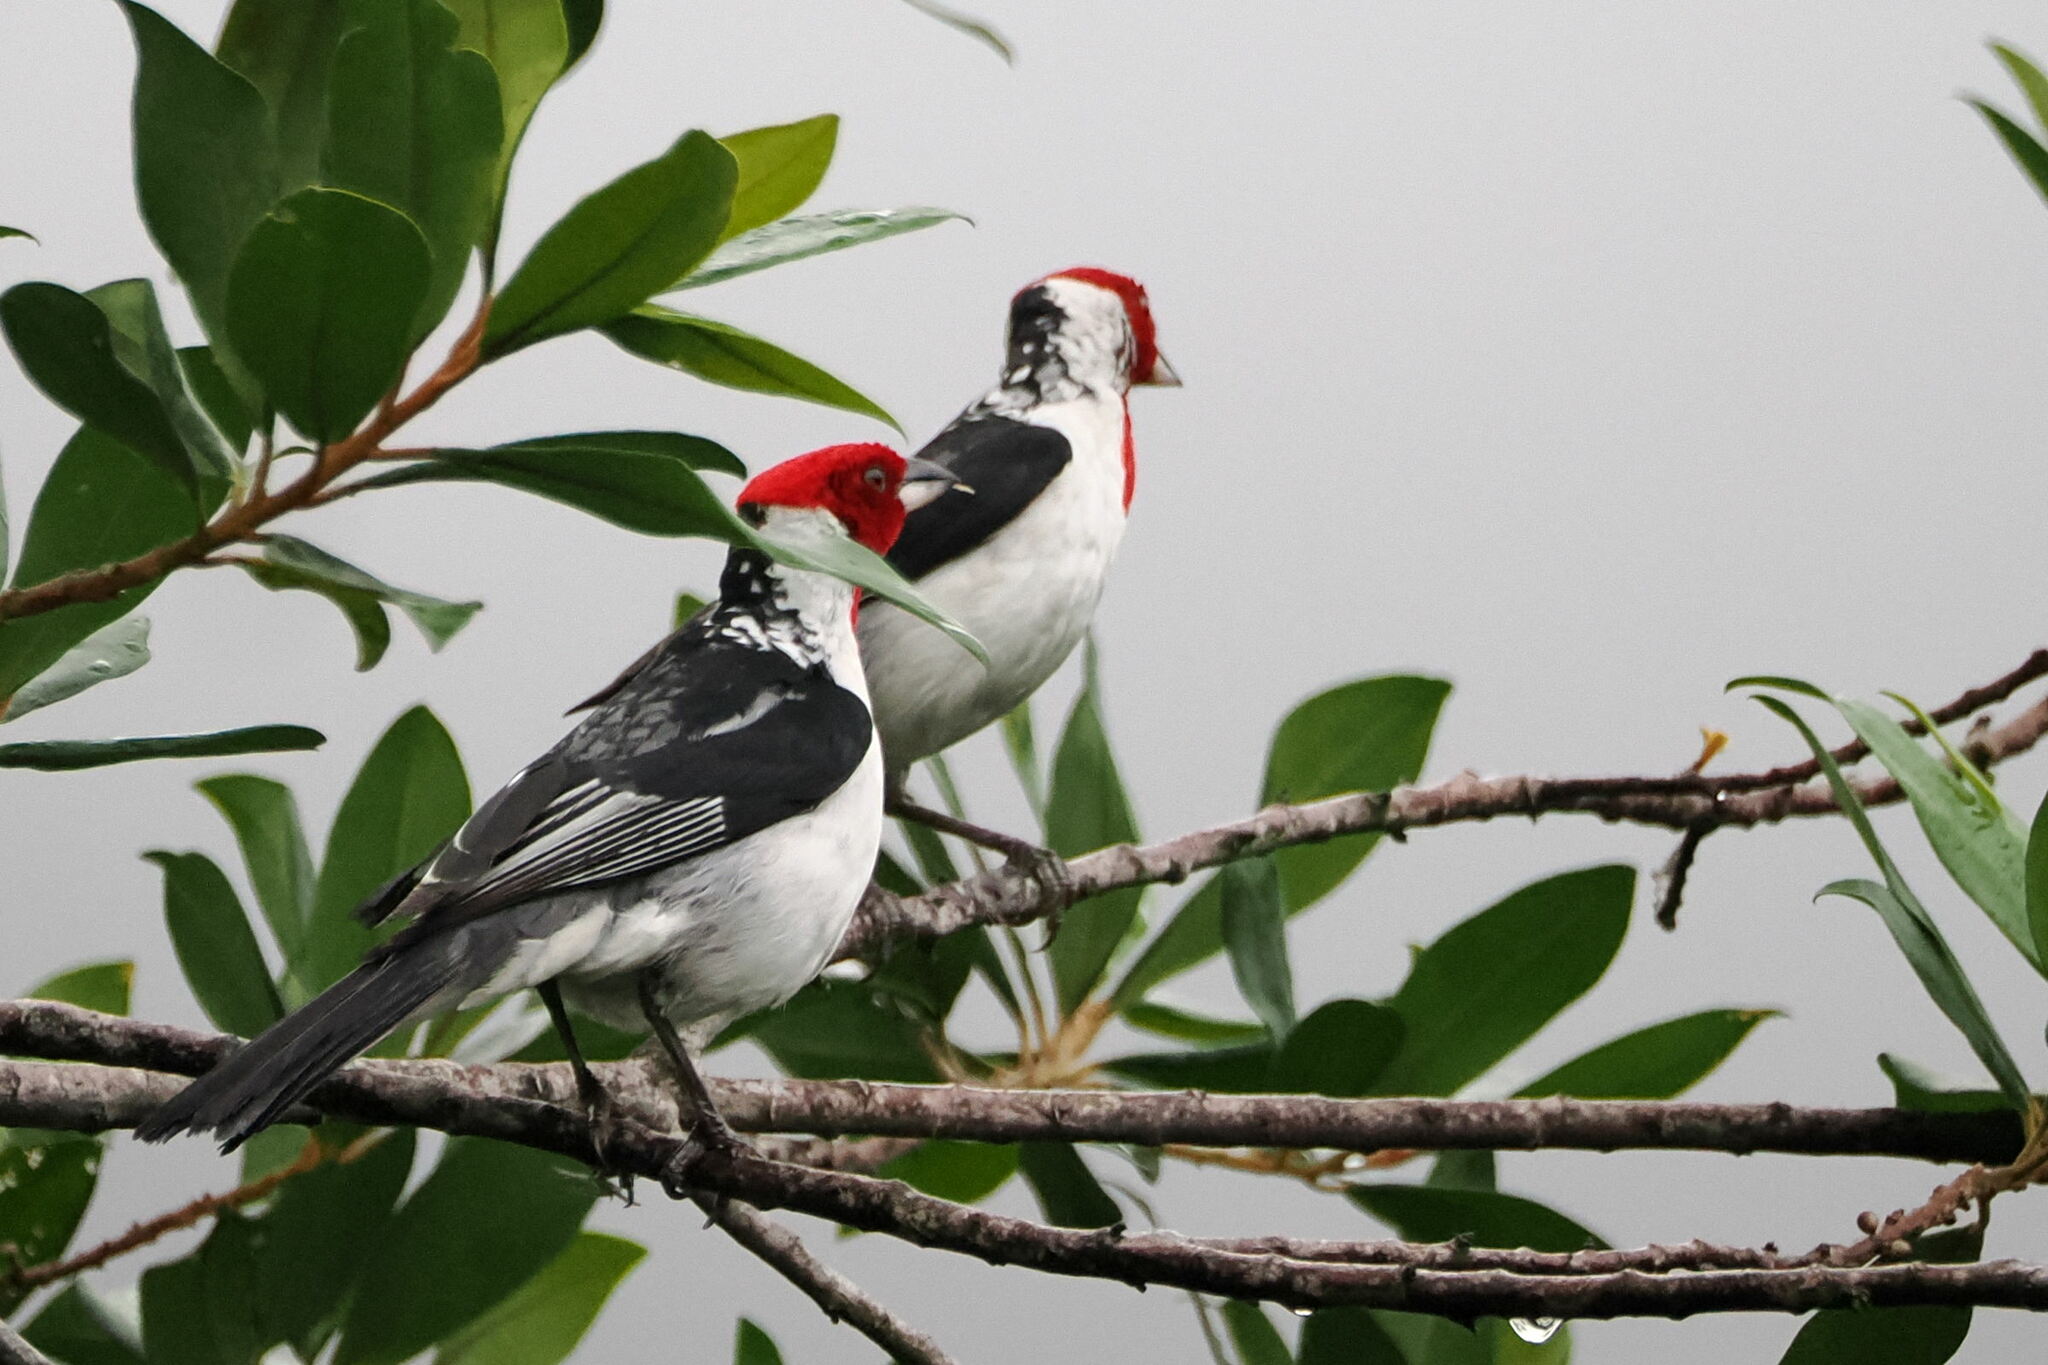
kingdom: Animalia
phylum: Chordata
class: Aves
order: Passeriformes
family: Thraupidae
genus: Paroaria
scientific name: Paroaria dominicana
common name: Red-cowled cardinal
